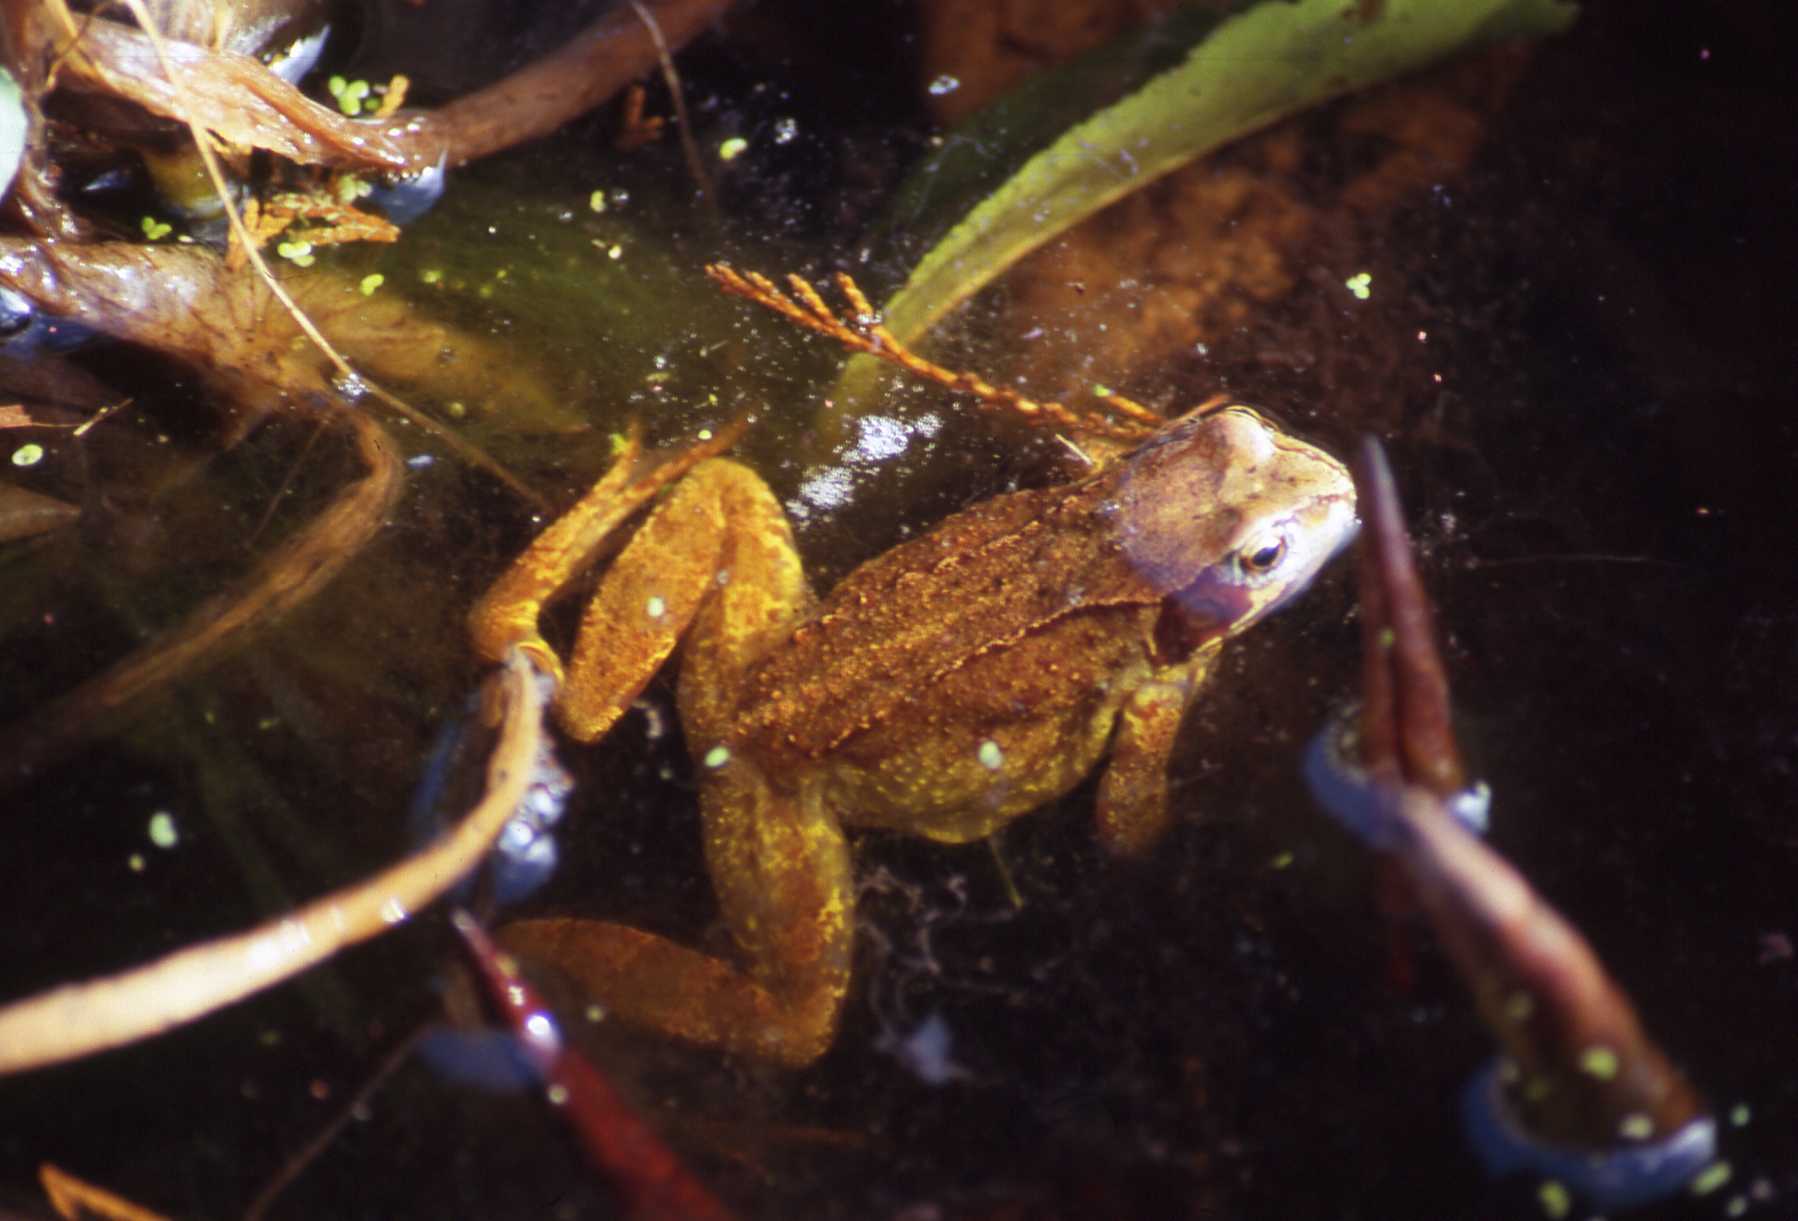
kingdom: Animalia
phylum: Chordata
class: Amphibia
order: Anura
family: Ranidae
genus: Rana
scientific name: Rana temporaria
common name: Common frog
